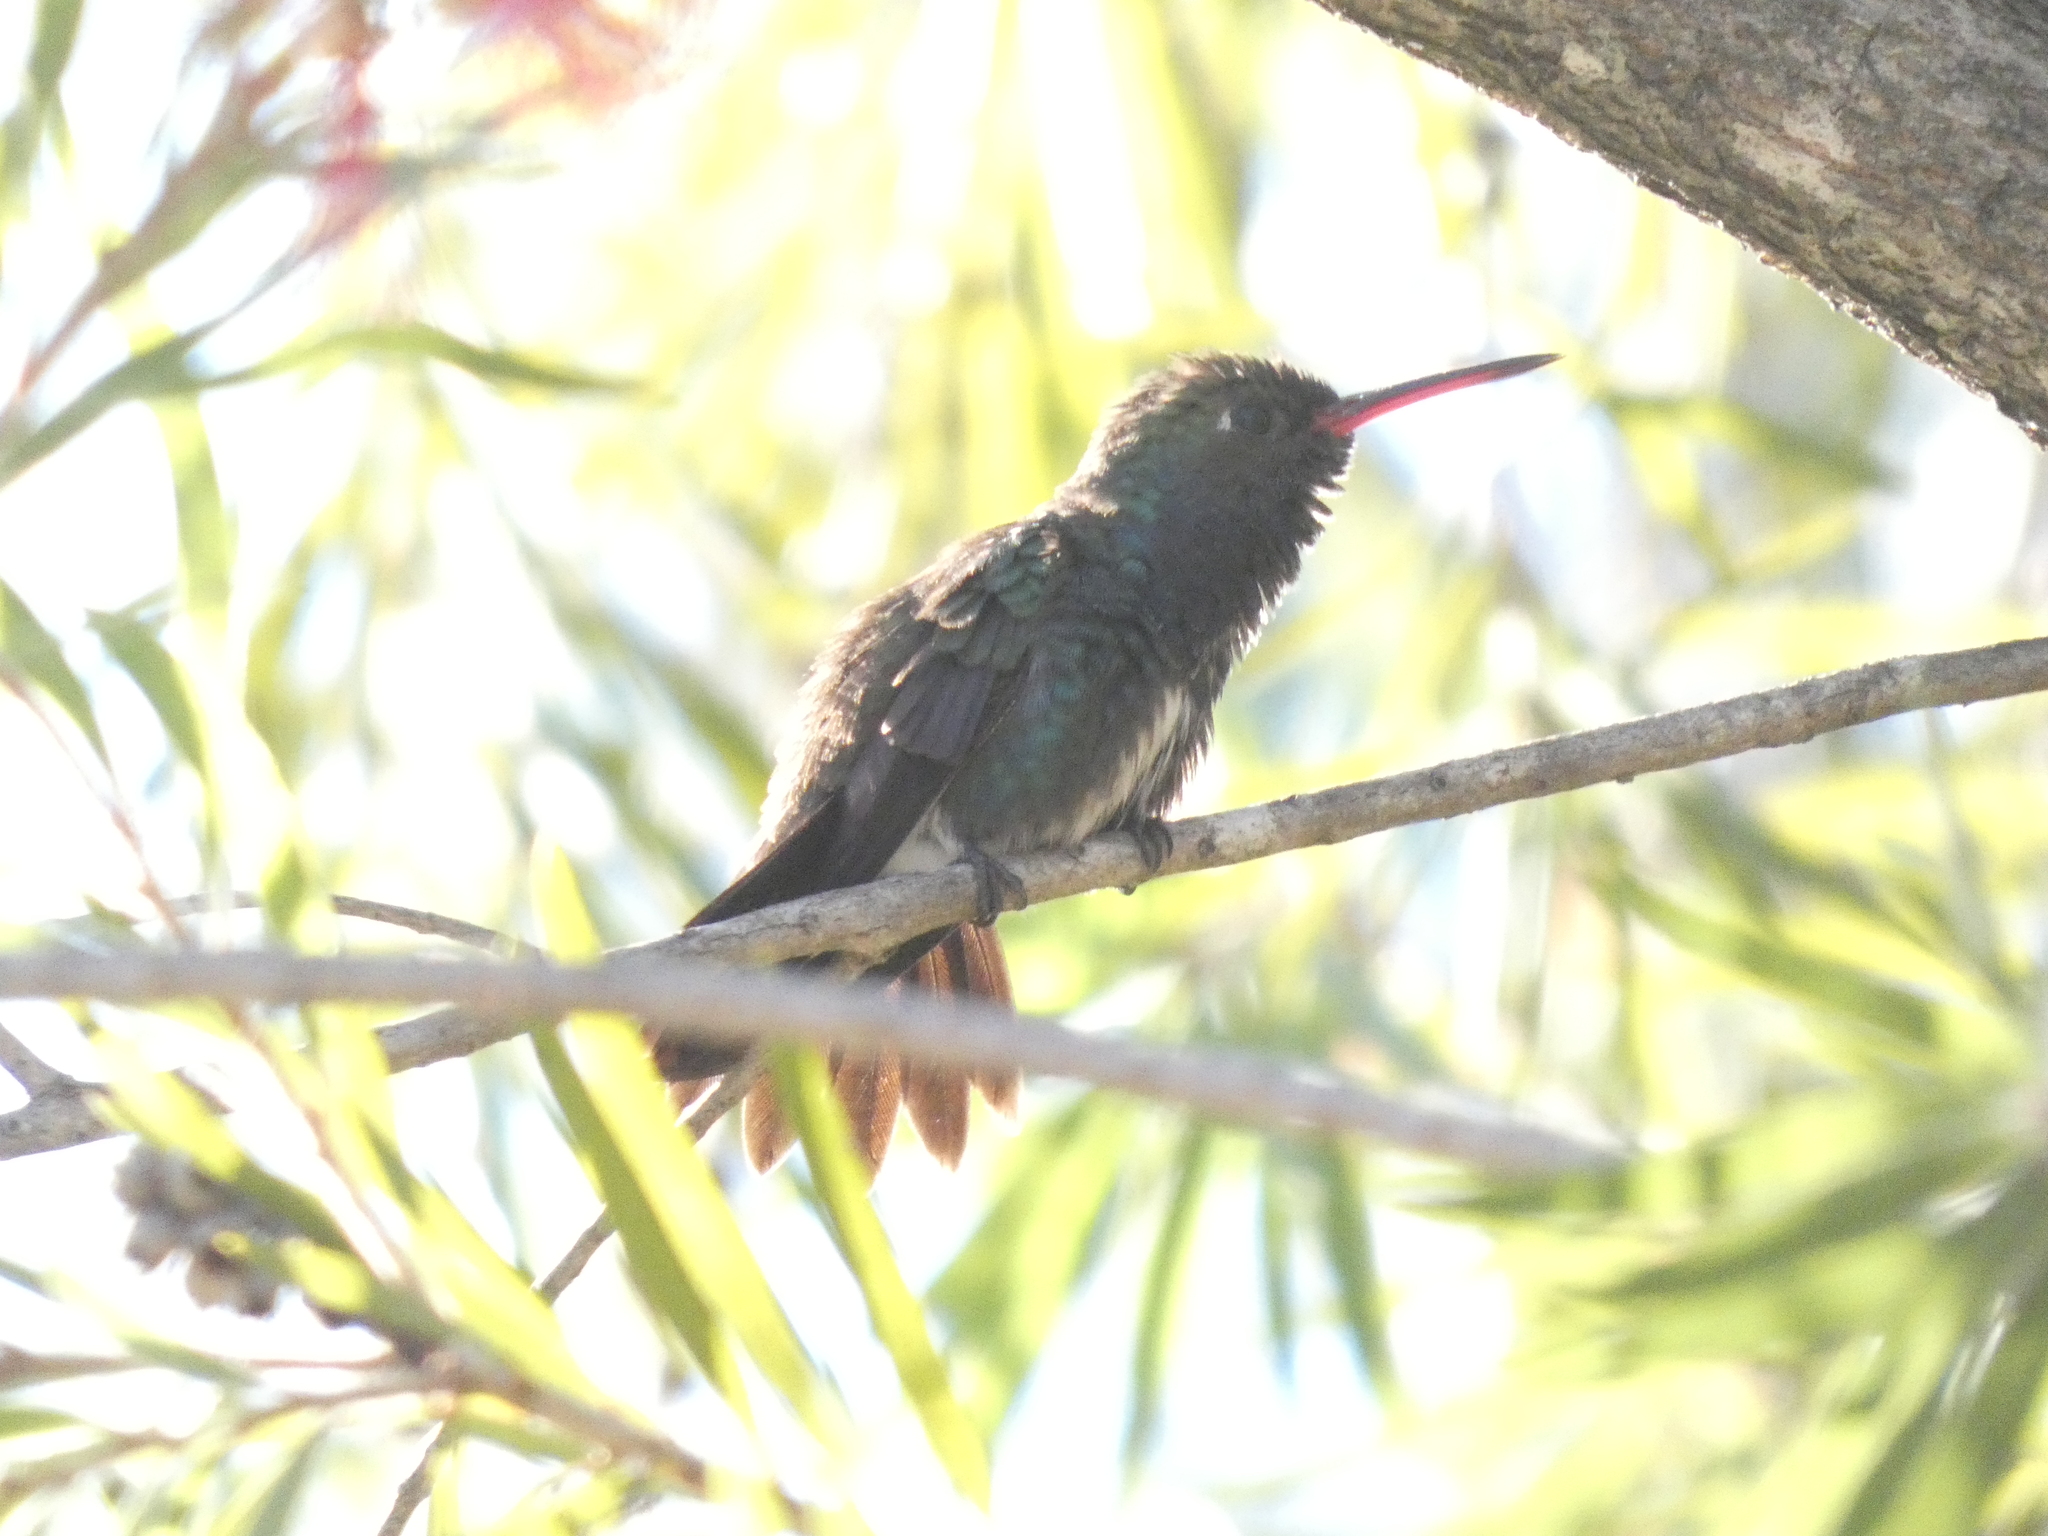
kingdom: Animalia
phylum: Chordata
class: Aves
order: Apodiformes
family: Trochilidae
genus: Chionomesa
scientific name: Chionomesa lactea
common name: Sapphire-spangled emerald
